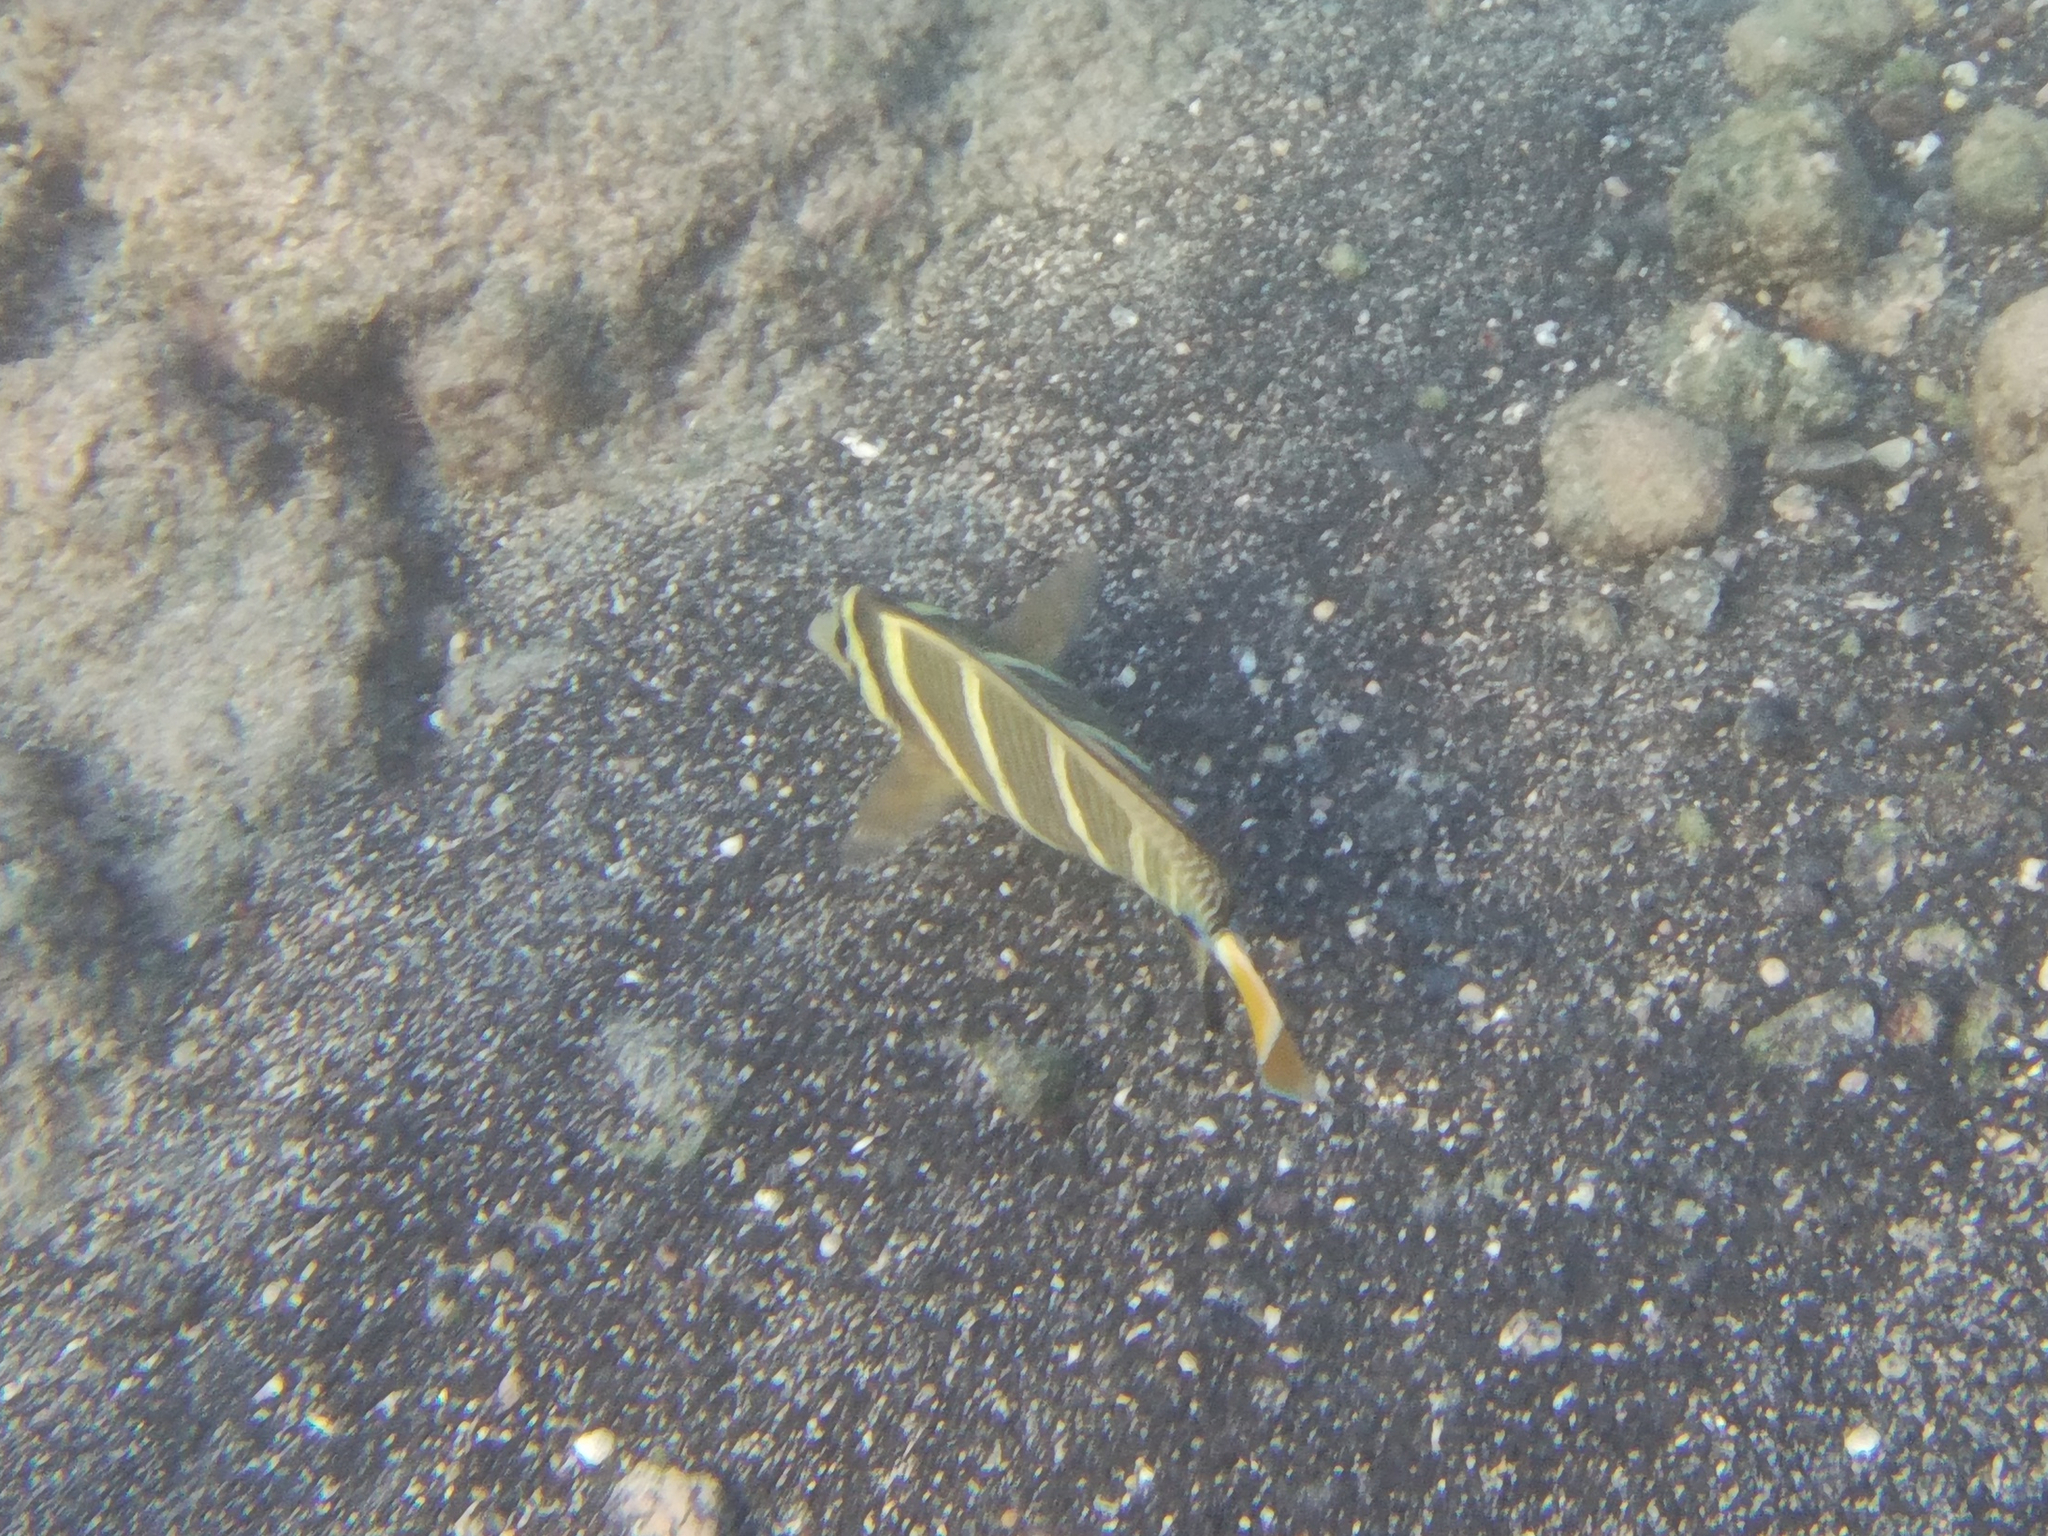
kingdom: Animalia
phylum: Chordata
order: Perciformes
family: Acanthuridae
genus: Zebrasoma
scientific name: Zebrasoma veliferum
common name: Sailfin surgeonfish
